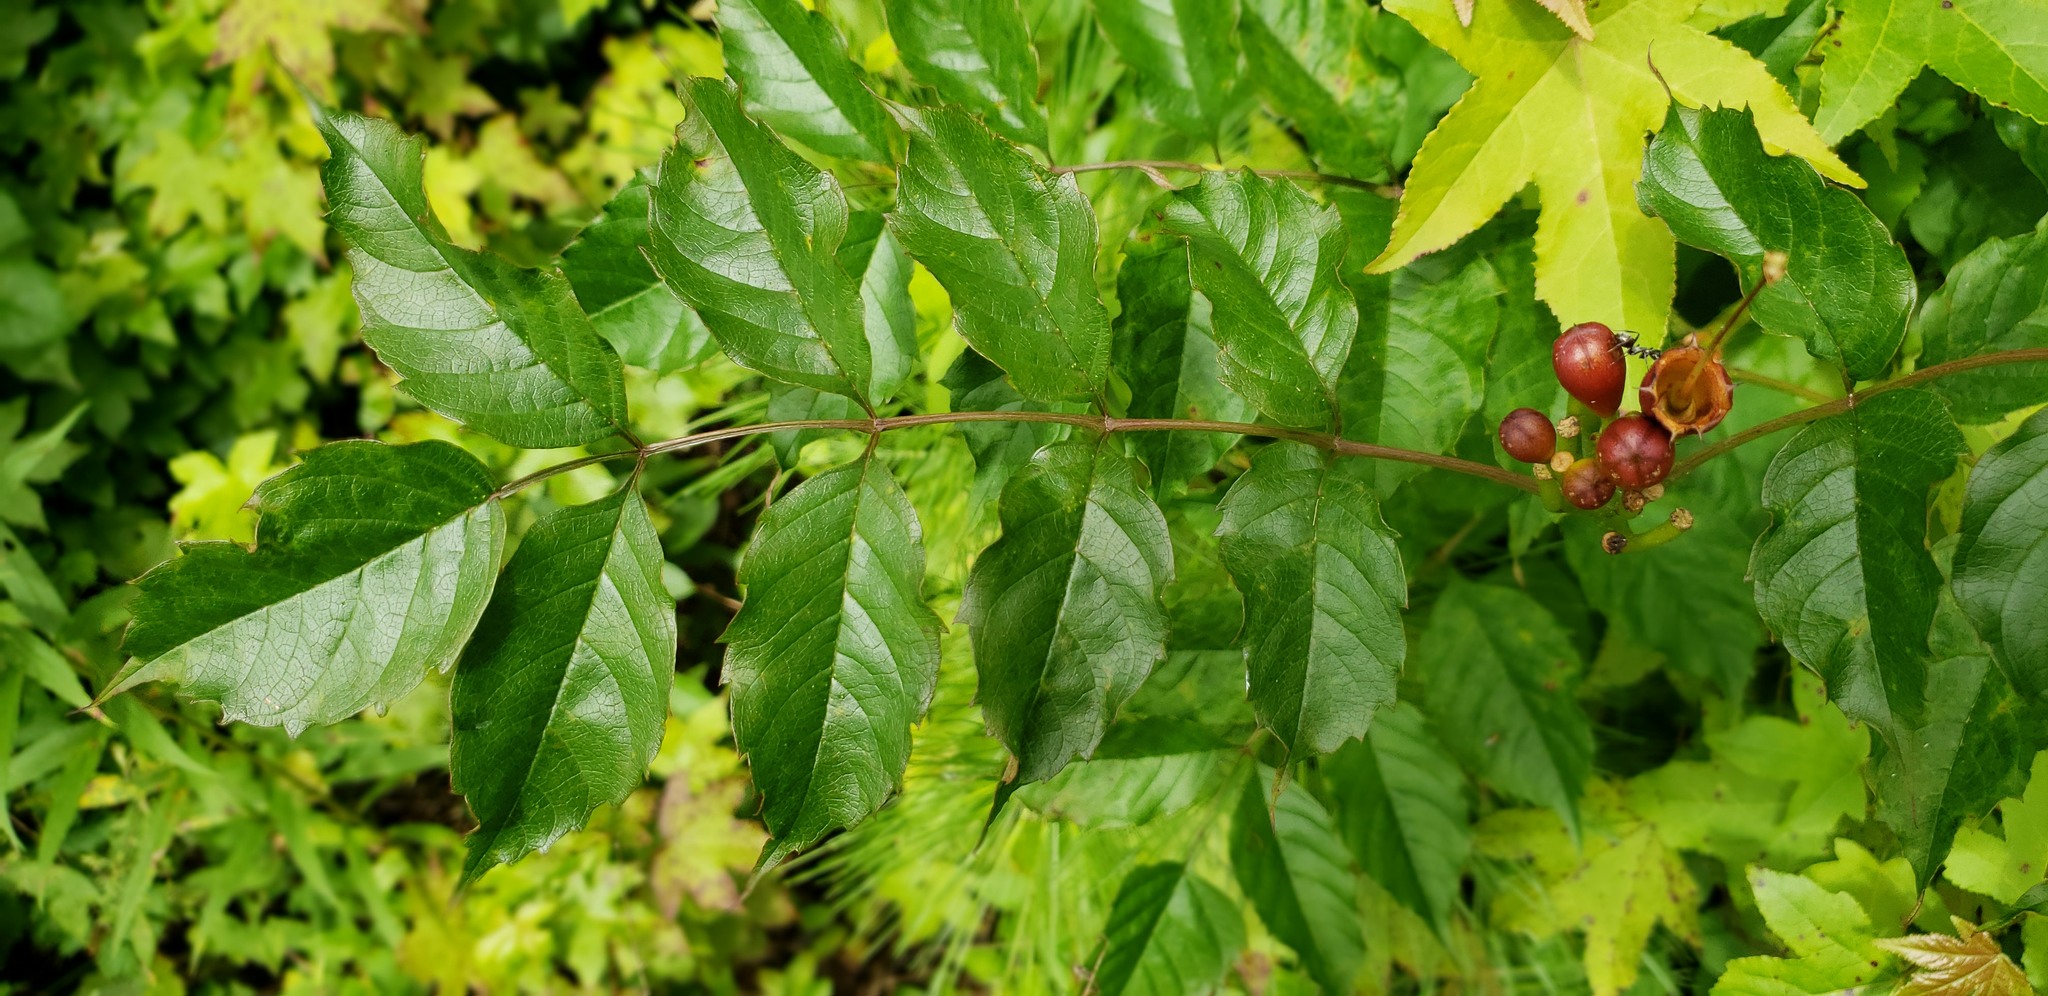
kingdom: Plantae
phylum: Tracheophyta
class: Magnoliopsida
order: Lamiales
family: Bignoniaceae
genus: Campsis
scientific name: Campsis radicans
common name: Trumpet-creeper
